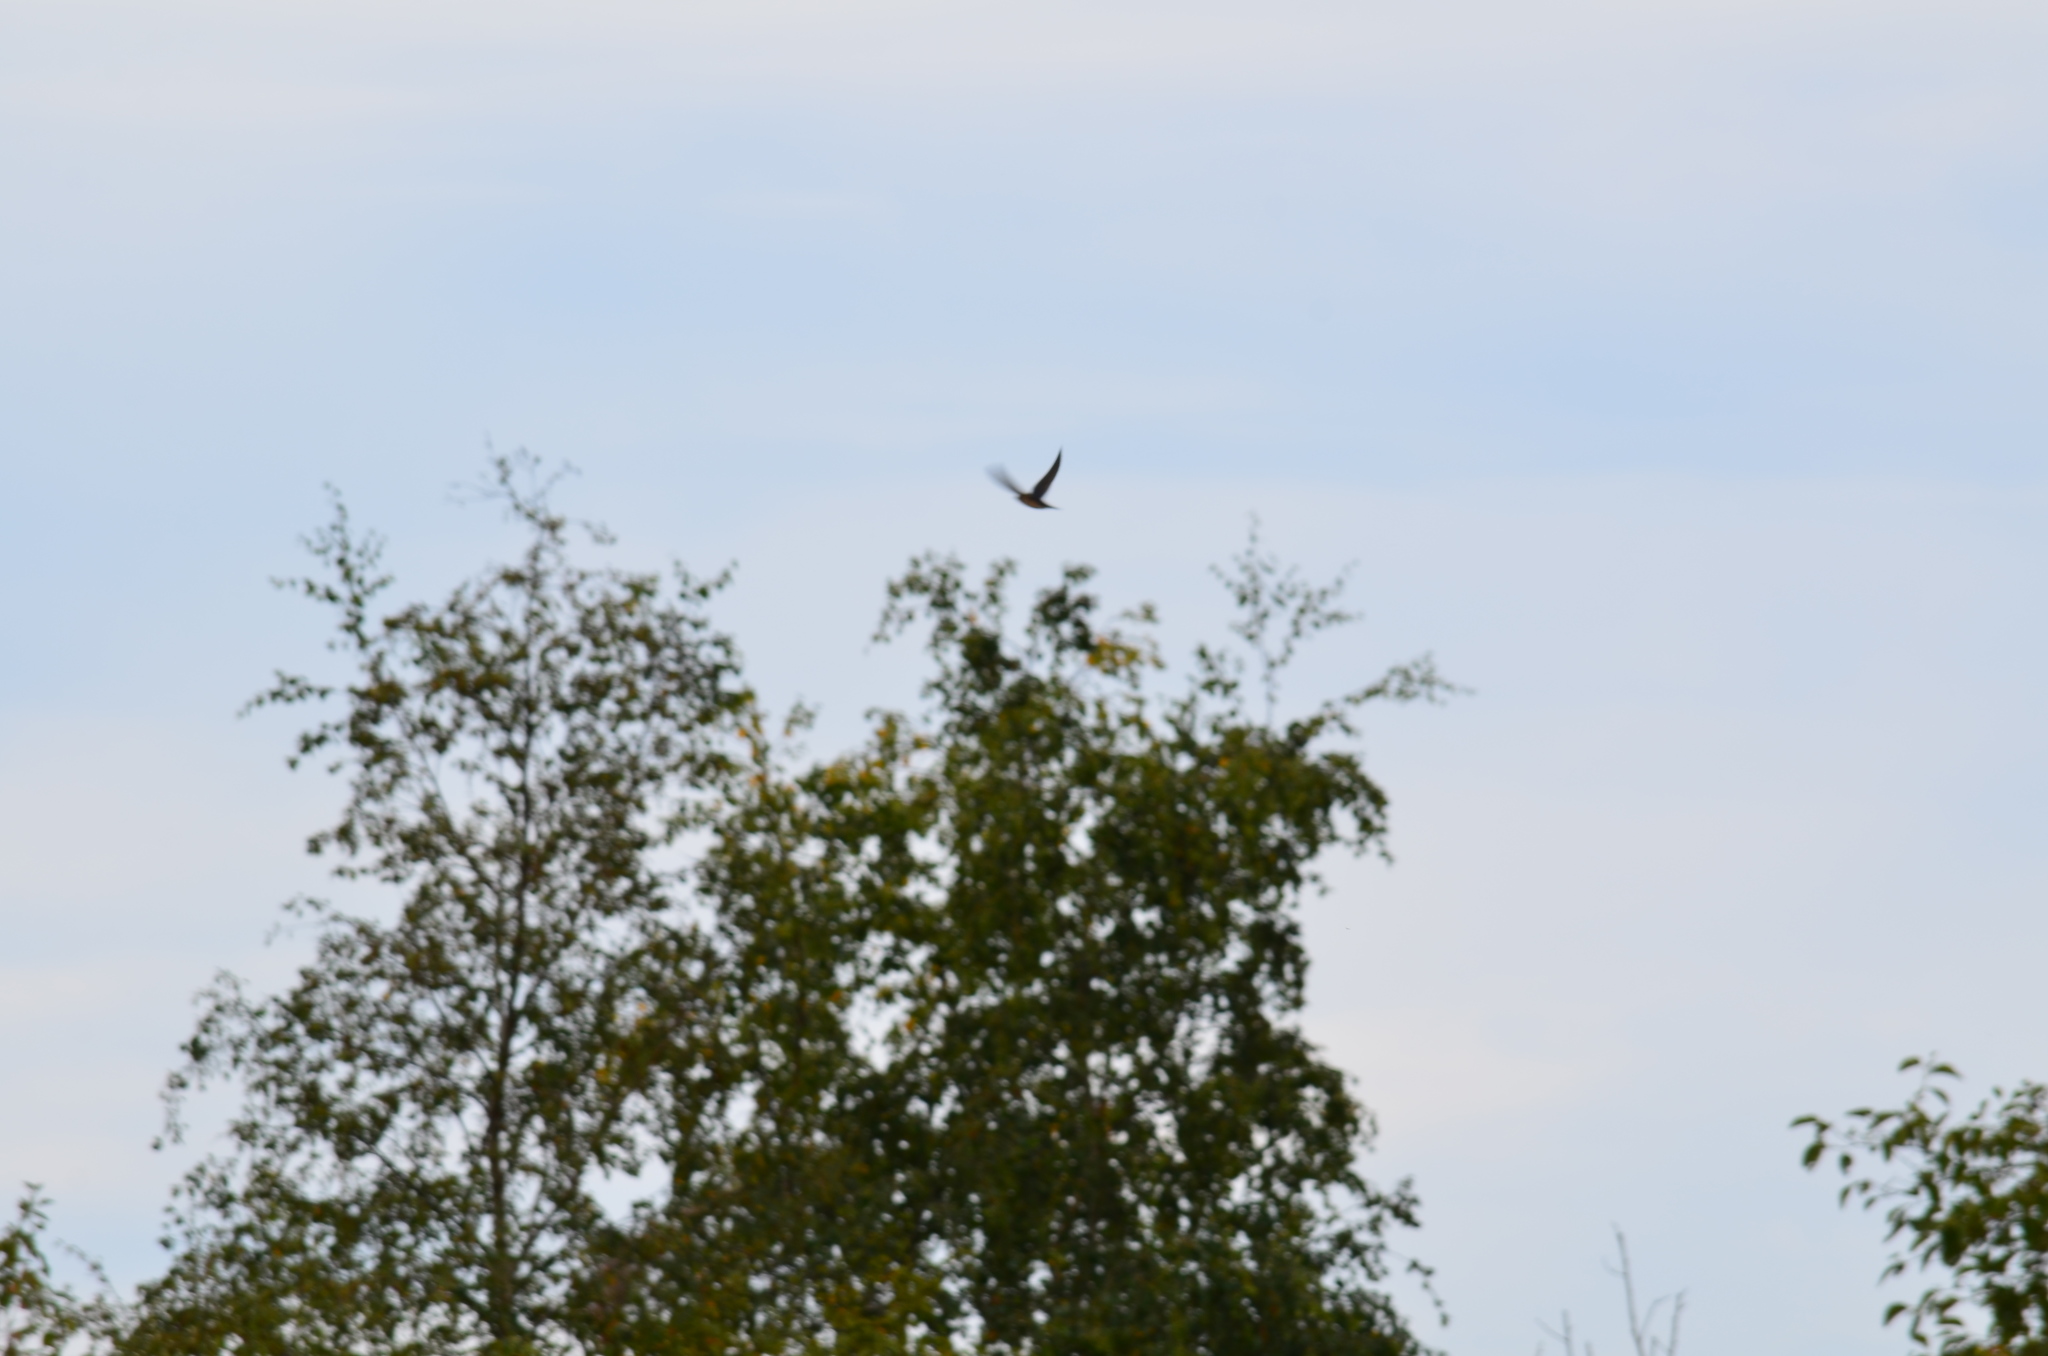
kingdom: Animalia
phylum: Chordata
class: Aves
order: Passeriformes
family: Hirundinidae
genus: Hirundo
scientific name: Hirundo rustica
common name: Barn swallow
